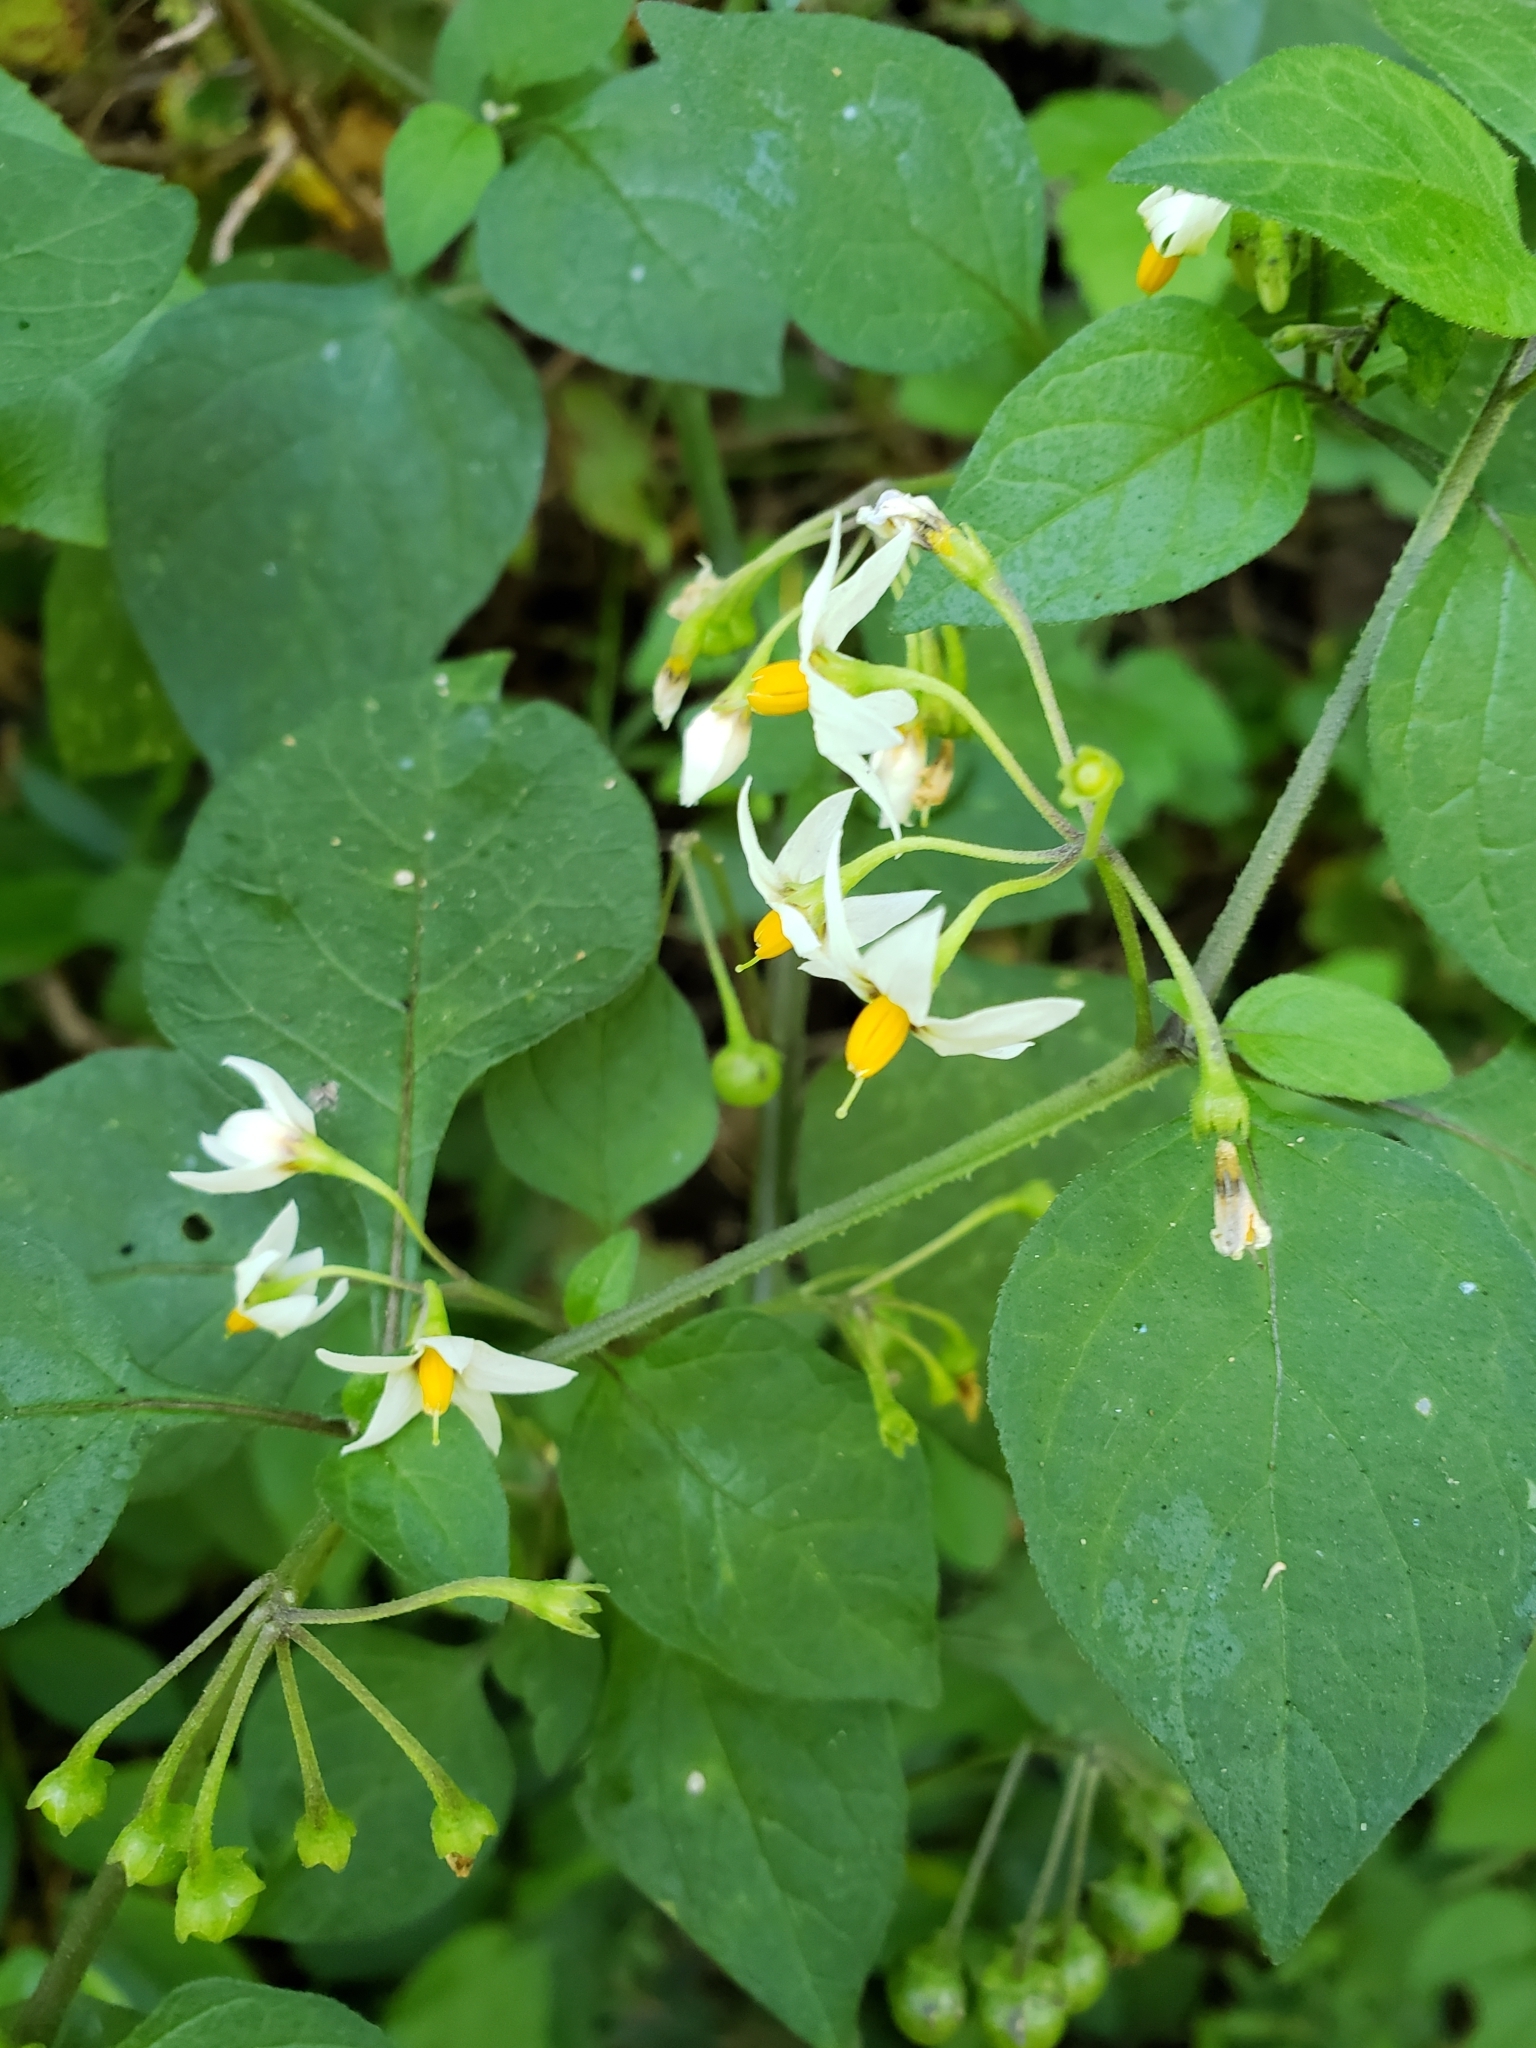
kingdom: Plantae
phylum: Tracheophyta
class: Magnoliopsida
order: Solanales
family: Solanaceae
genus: Solanum
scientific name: Solanum douglasii
